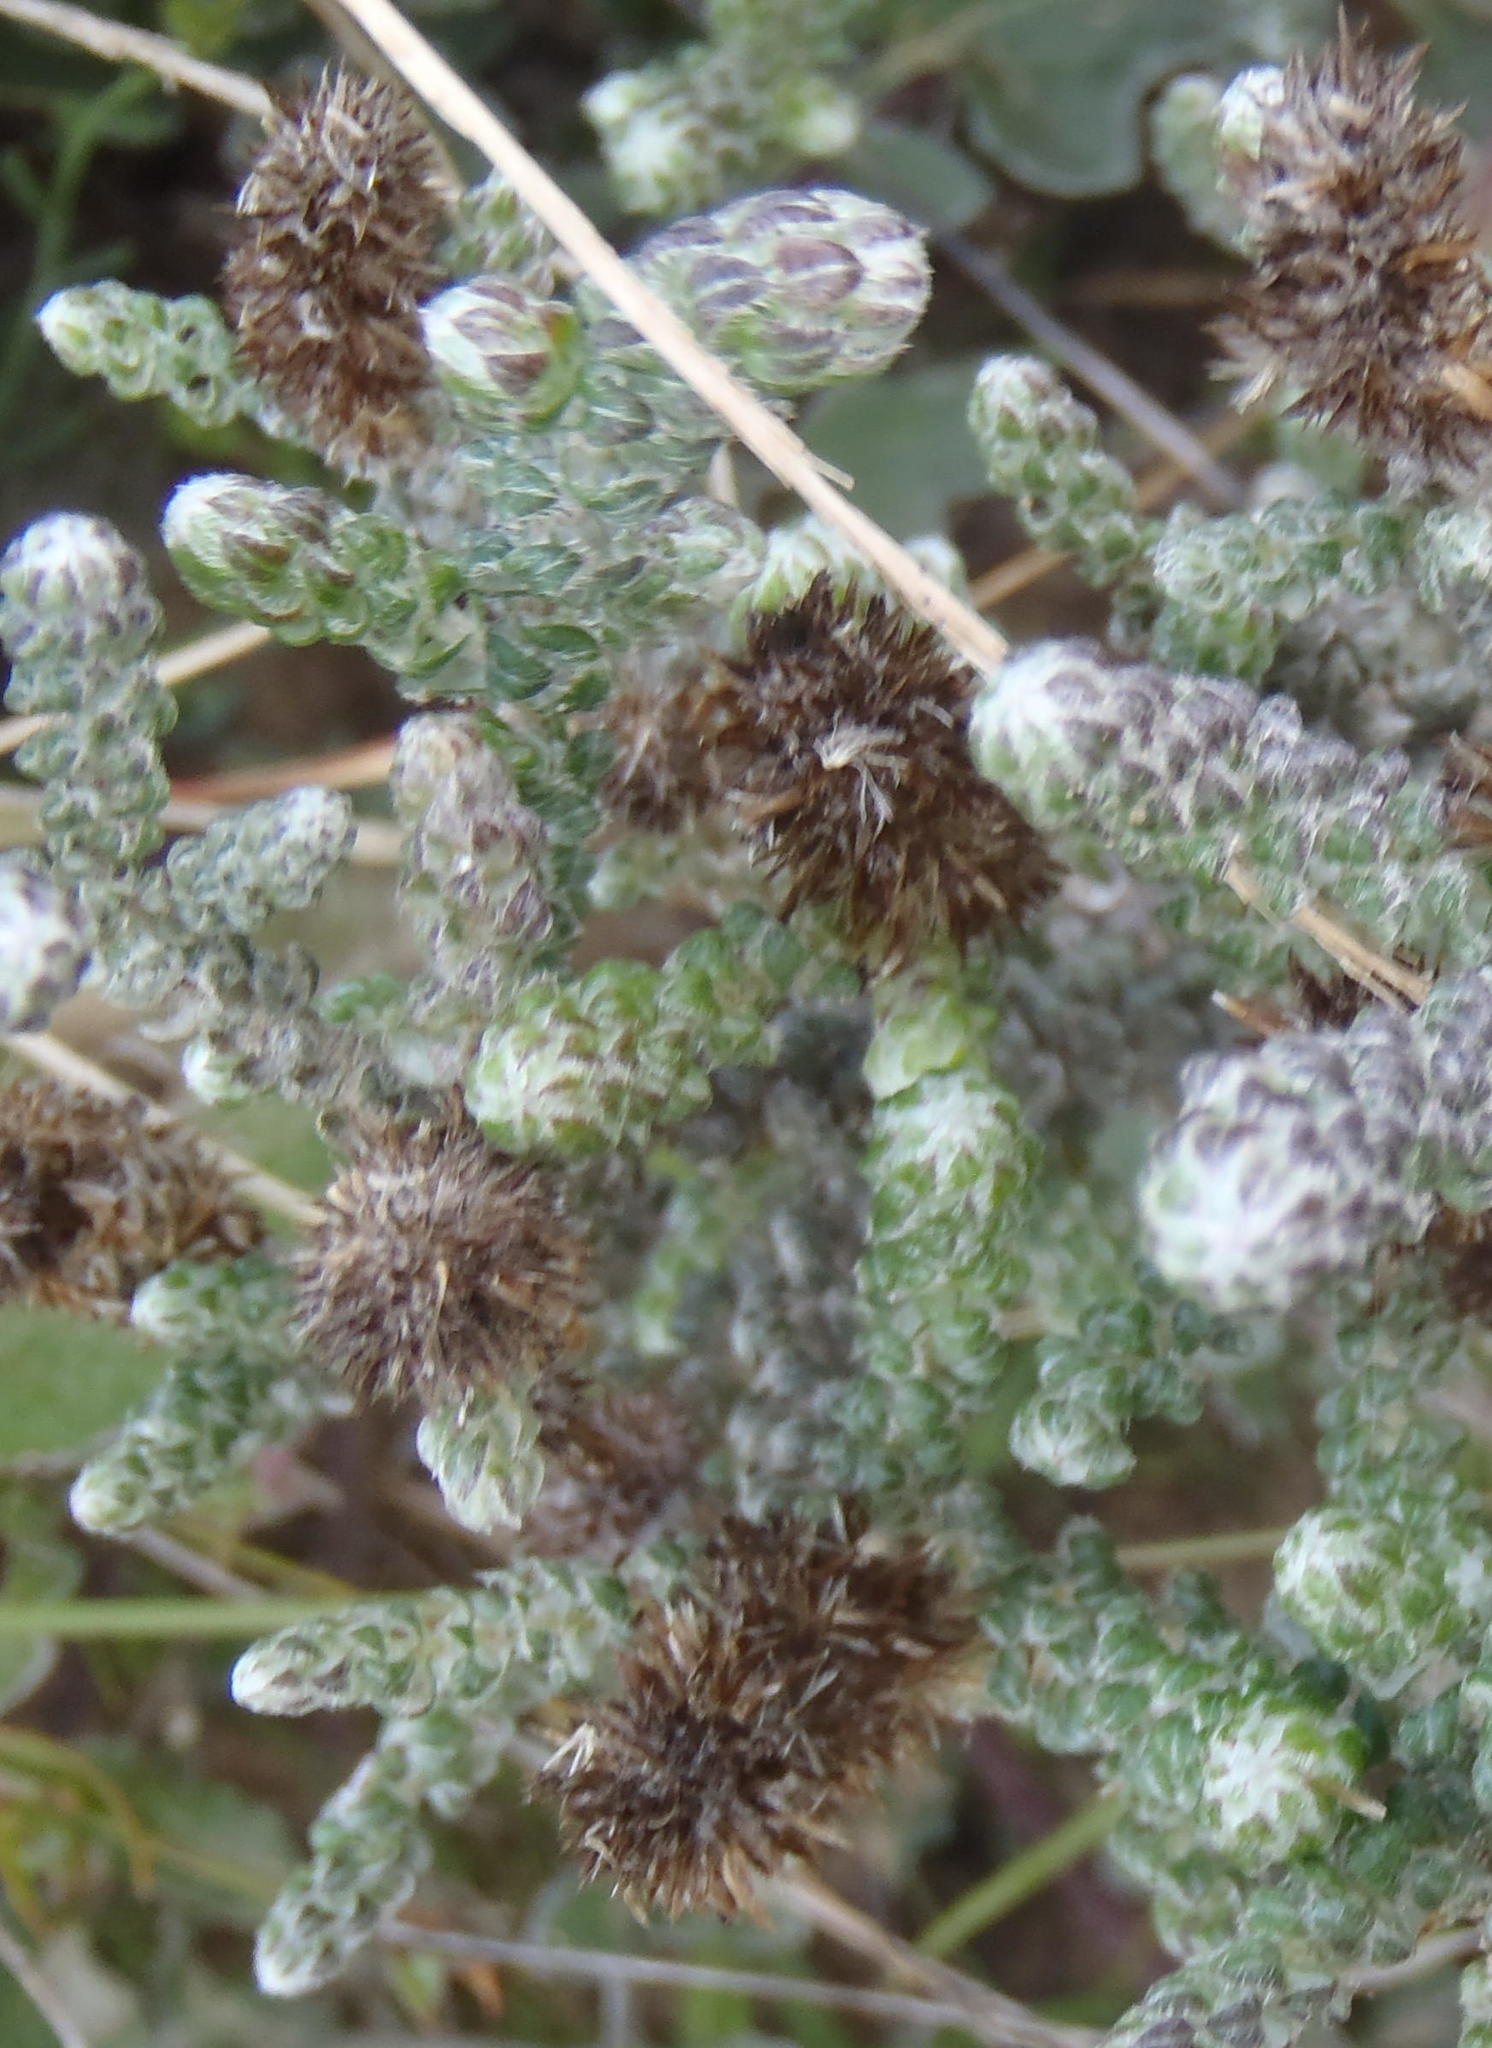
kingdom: Plantae
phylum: Tracheophyta
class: Magnoliopsida
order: Asterales
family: Asteraceae
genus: Stoebe
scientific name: Stoebe muirii
